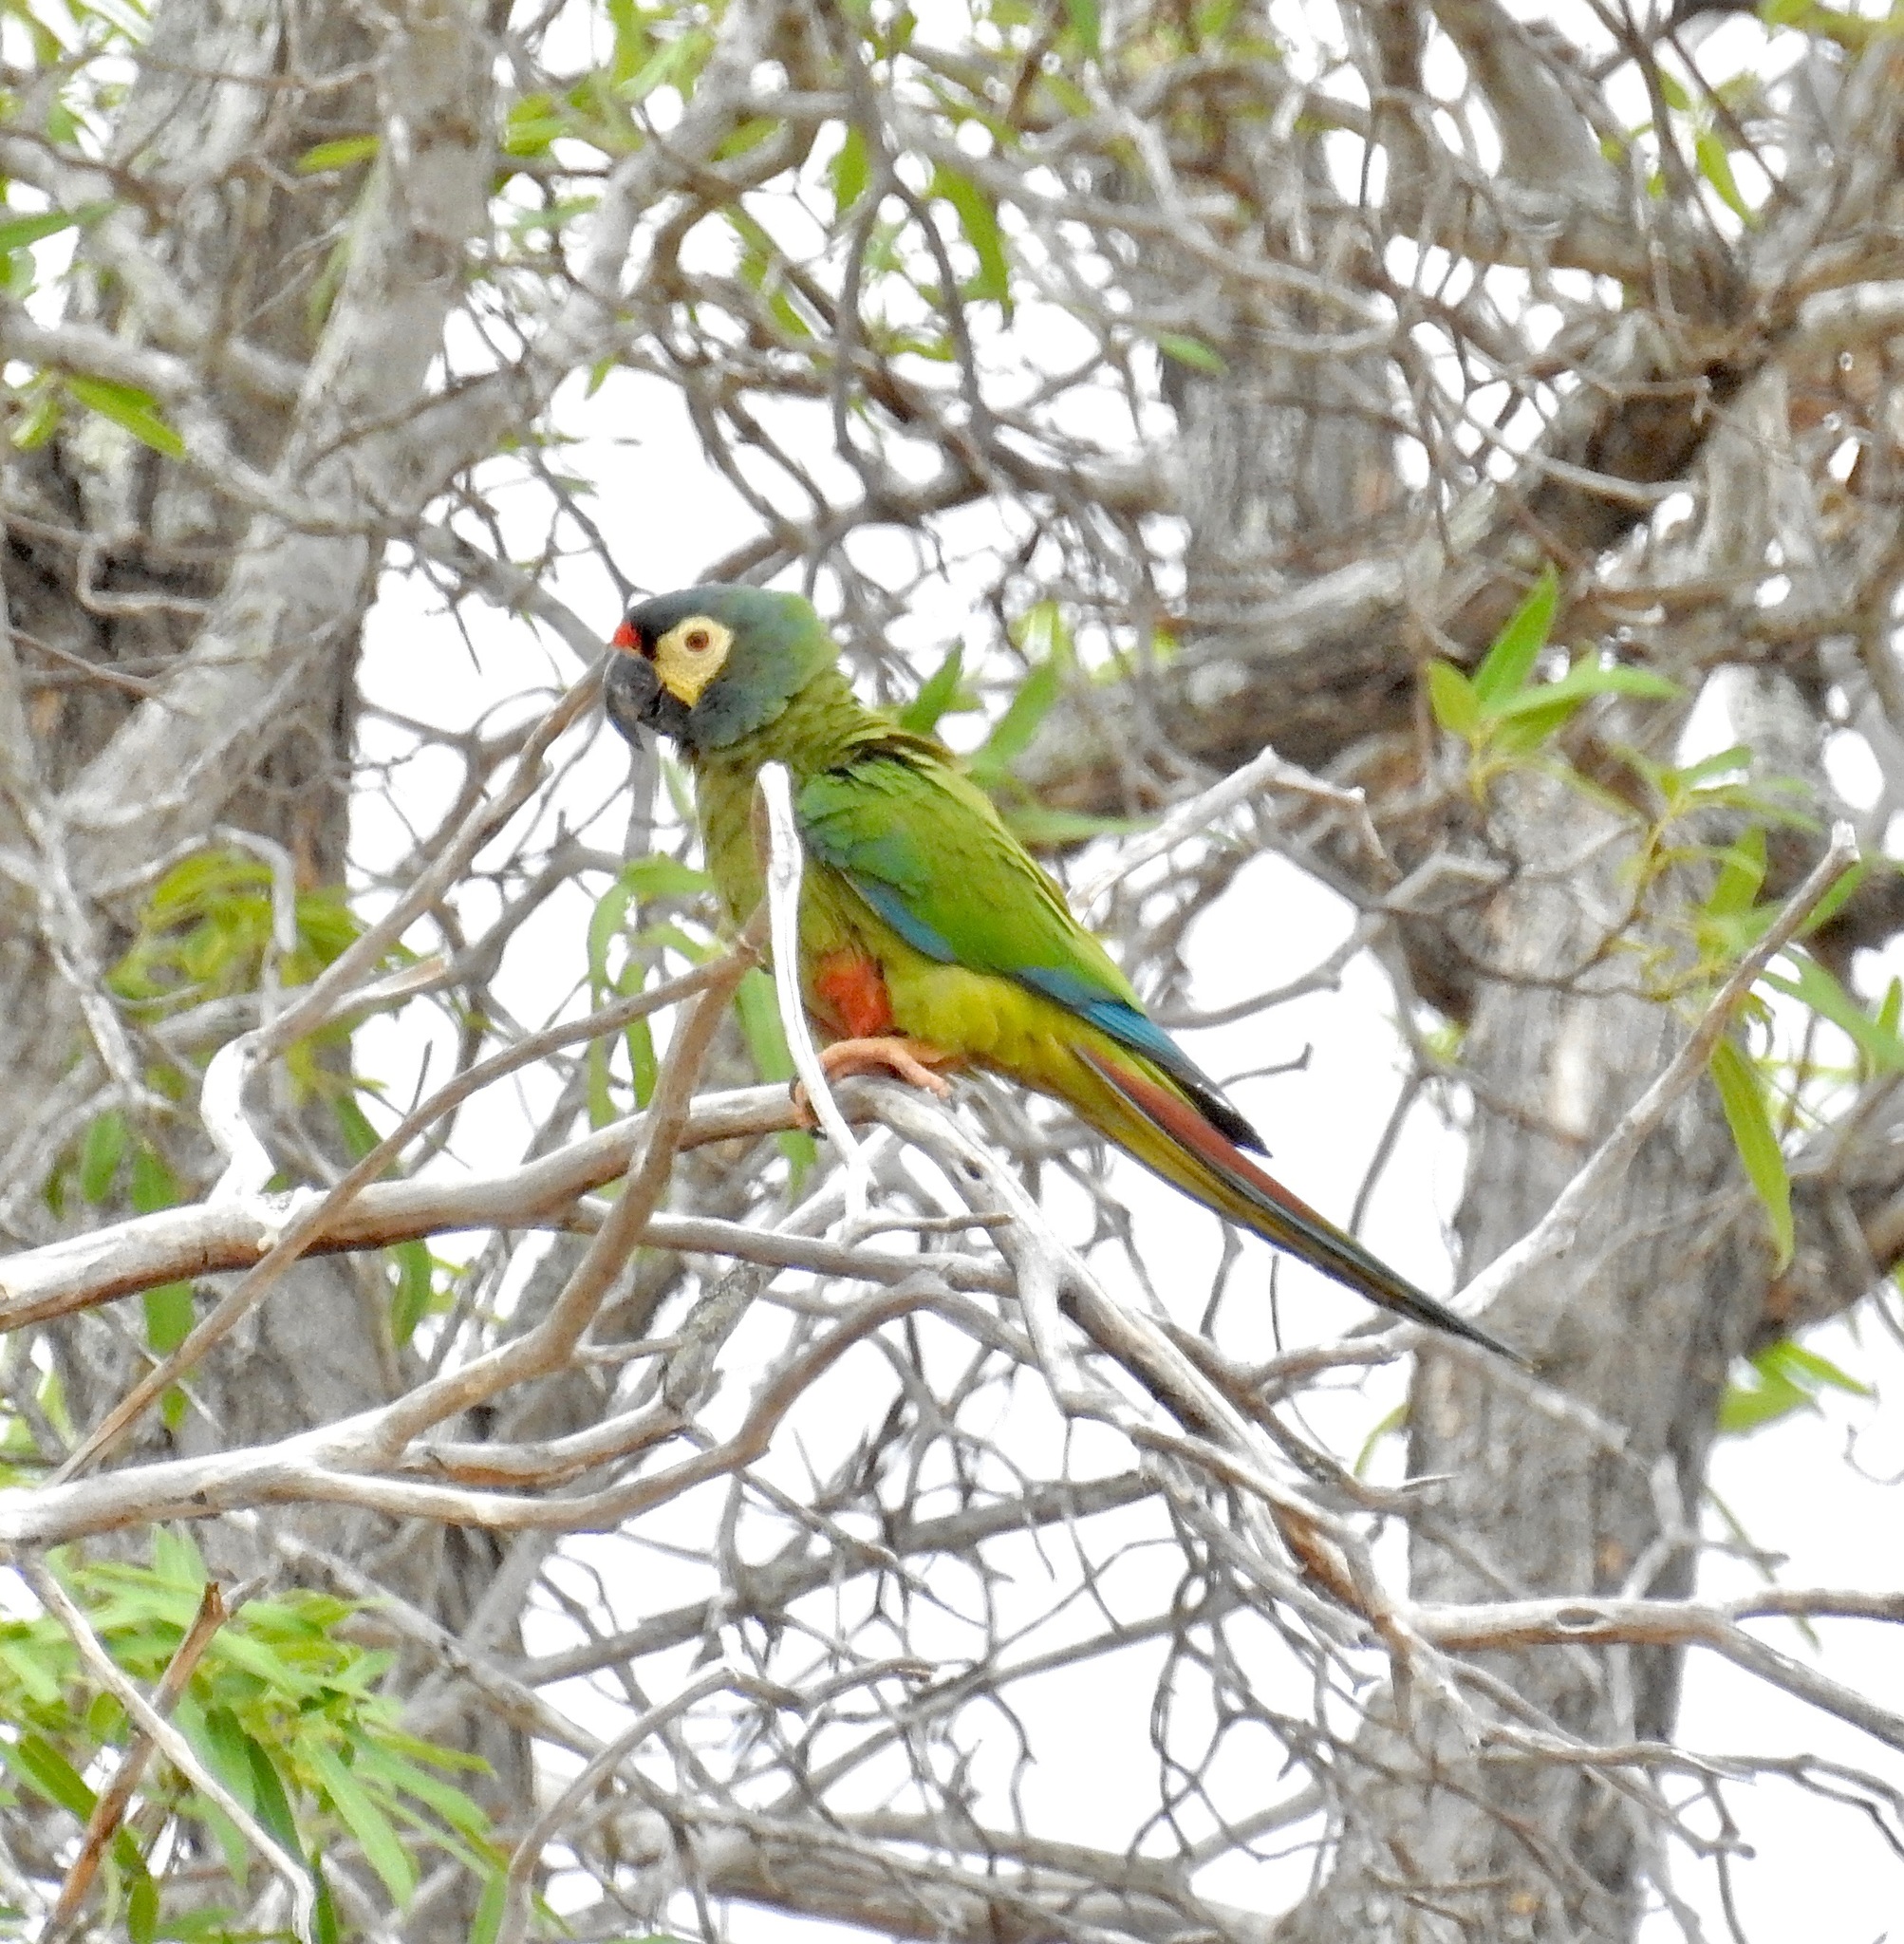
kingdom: Animalia
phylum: Chordata
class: Aves
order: Psittaciformes
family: Psittacidae
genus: Primolius
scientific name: Primolius maracana
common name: Blue-winged macaw
